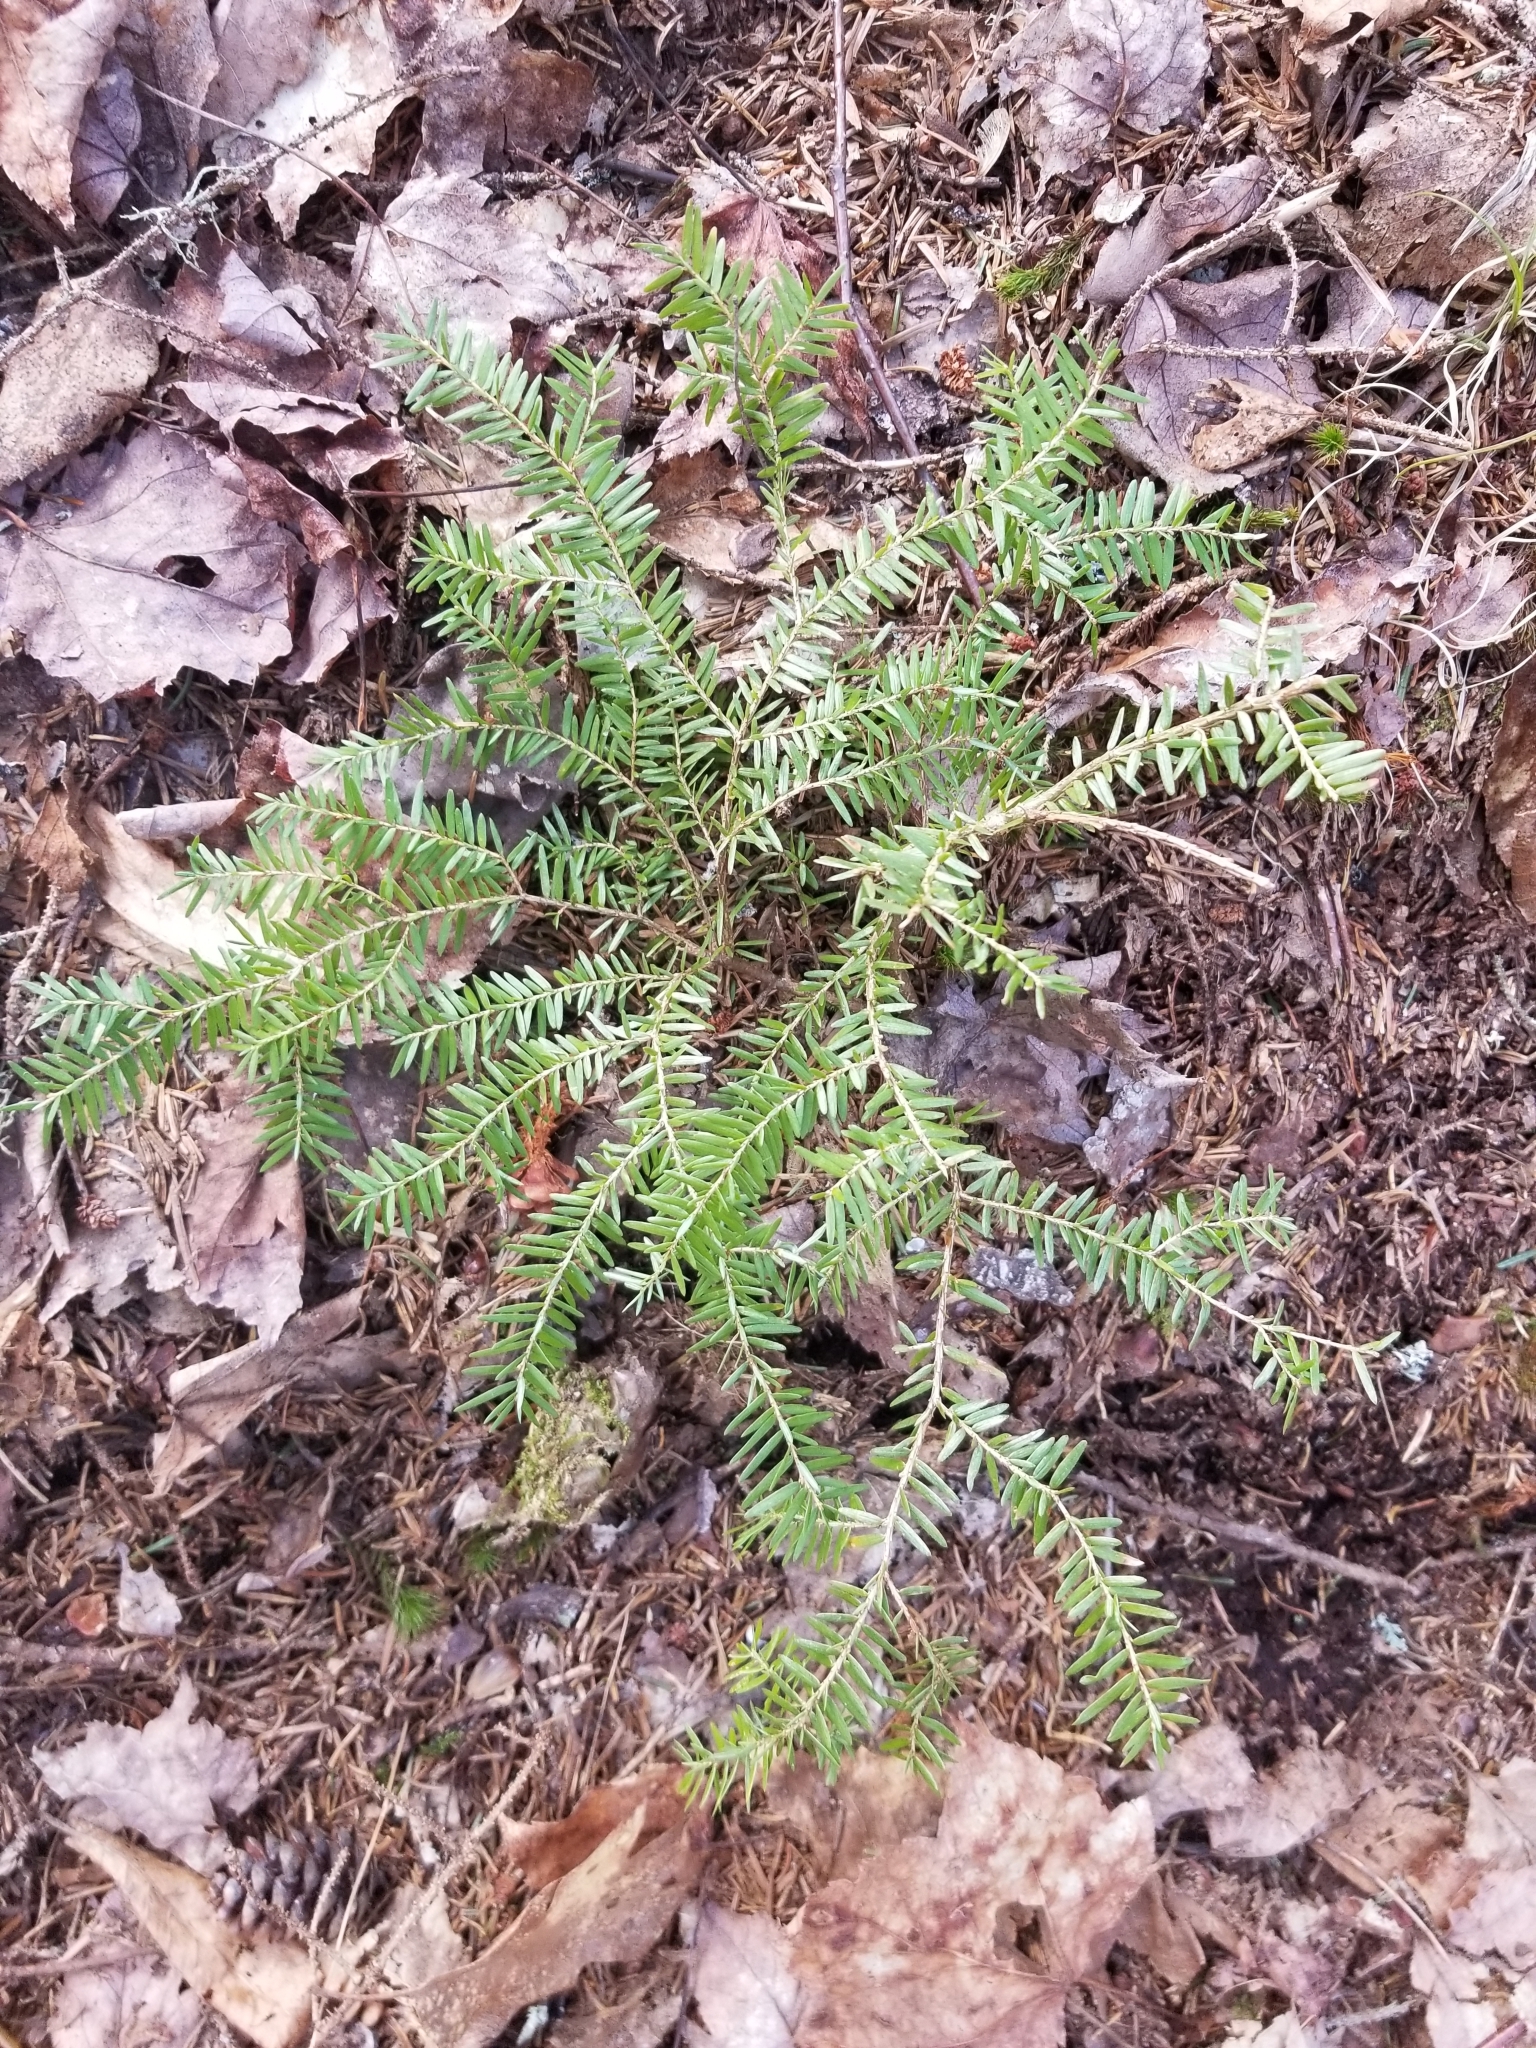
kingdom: Plantae
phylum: Tracheophyta
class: Pinopsida
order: Pinales
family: Pinaceae
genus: Tsuga
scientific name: Tsuga canadensis
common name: Eastern hemlock
